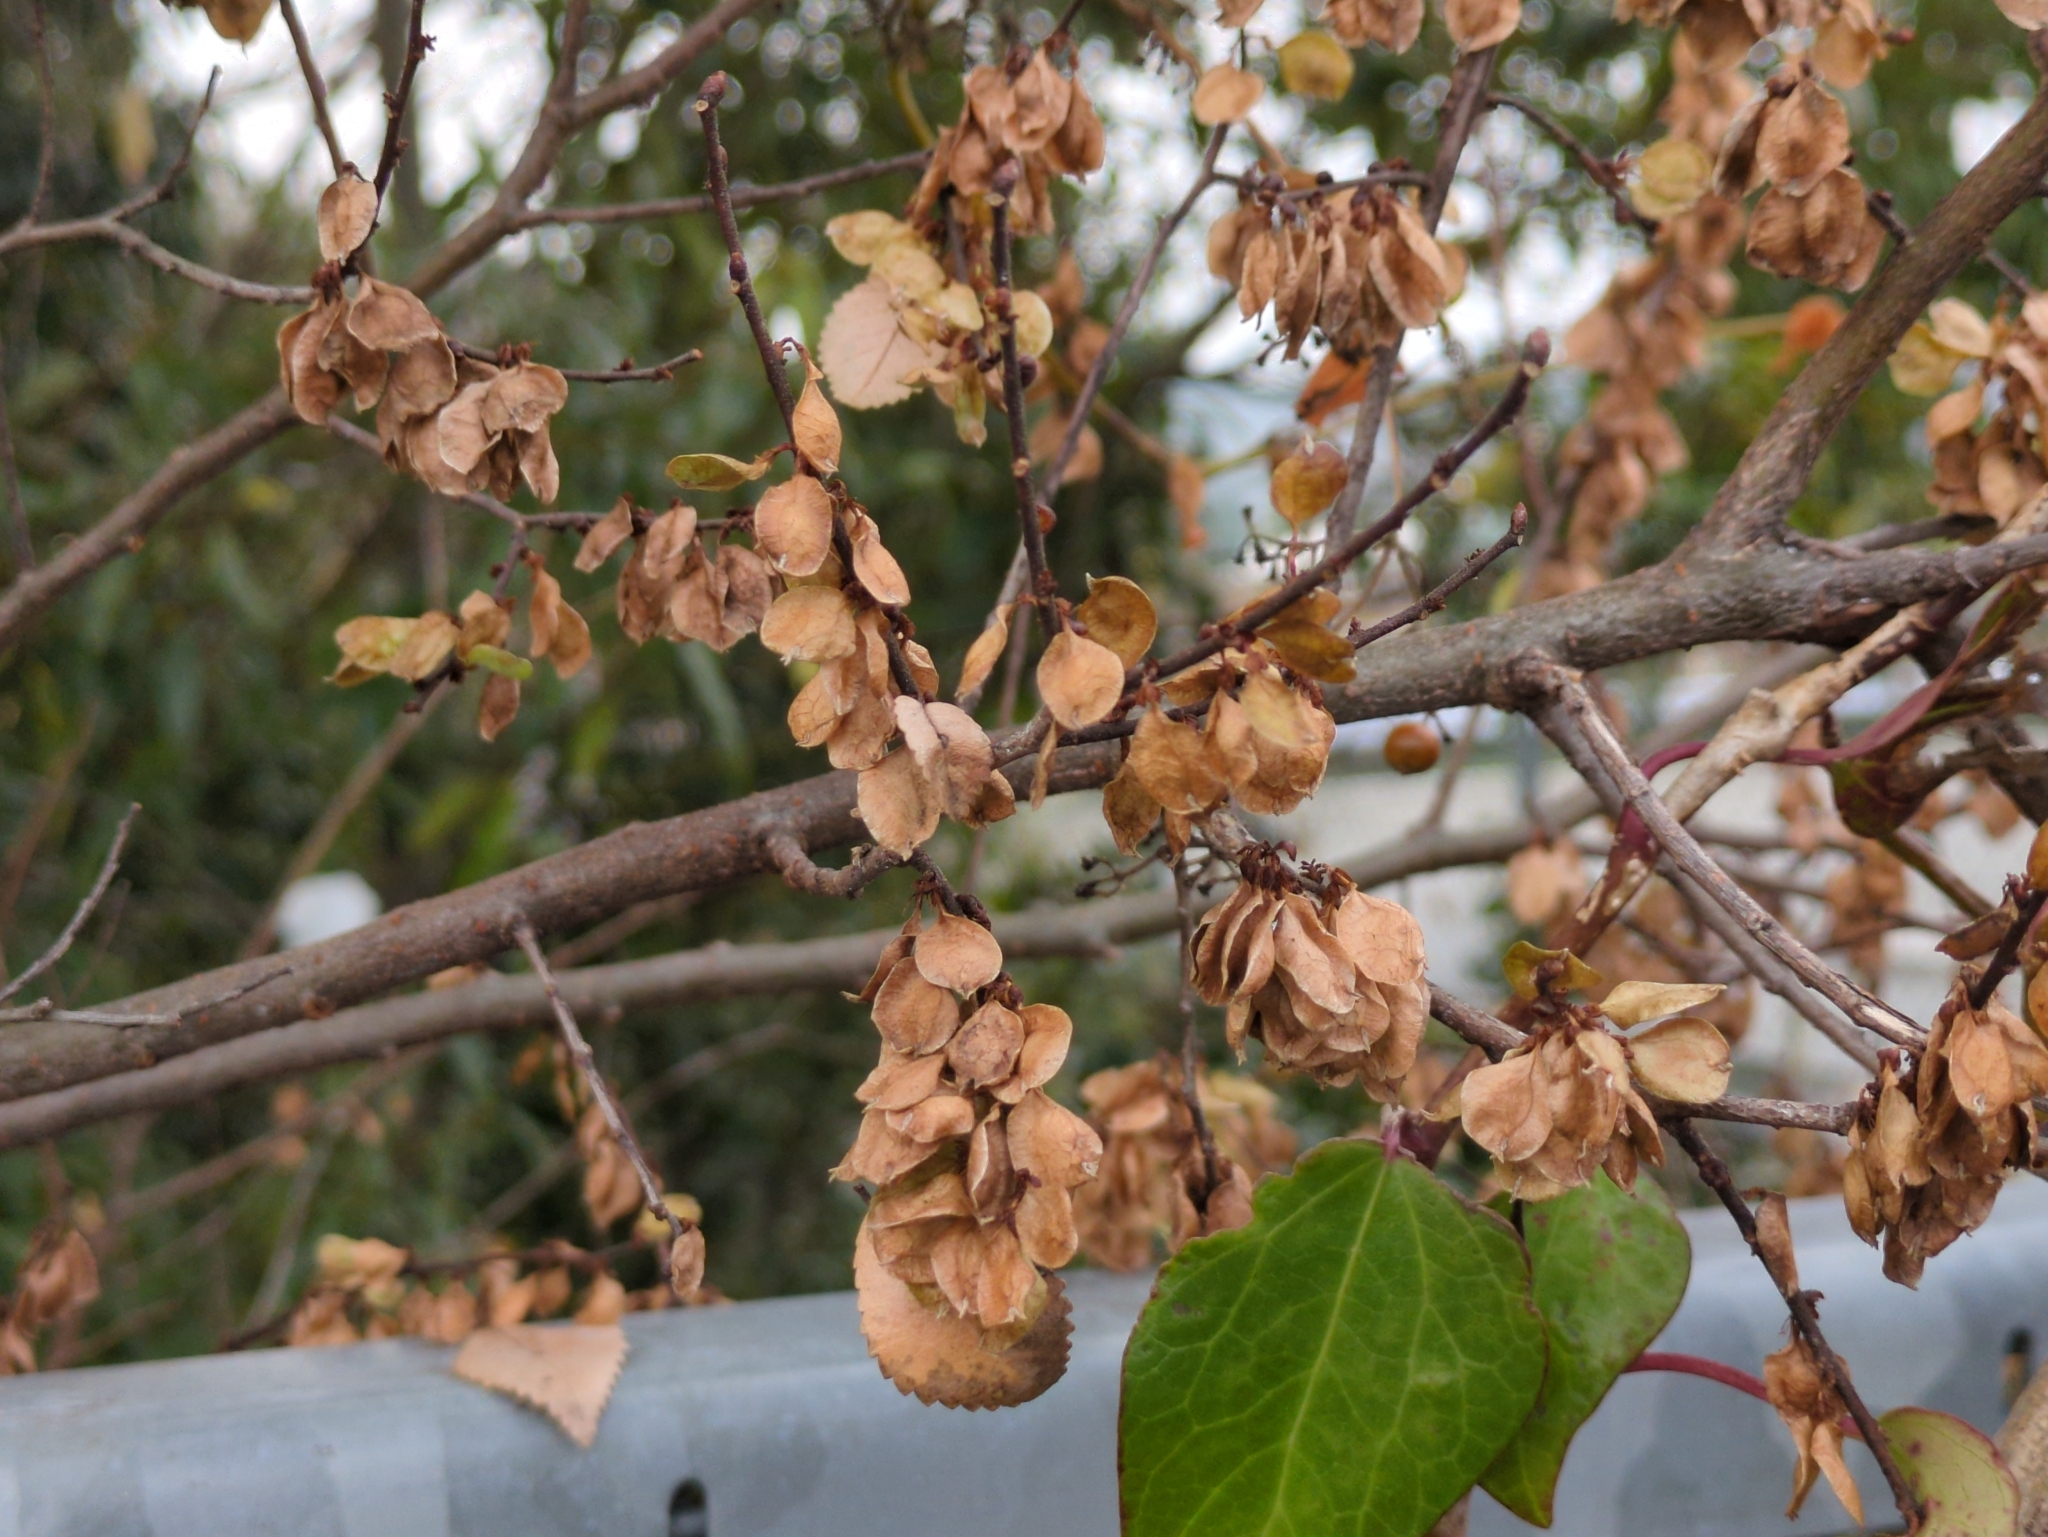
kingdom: Plantae
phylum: Tracheophyta
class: Magnoliopsida
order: Rosales
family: Ulmaceae
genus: Ulmus
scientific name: Ulmus parvifolia
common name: Chinese elm
